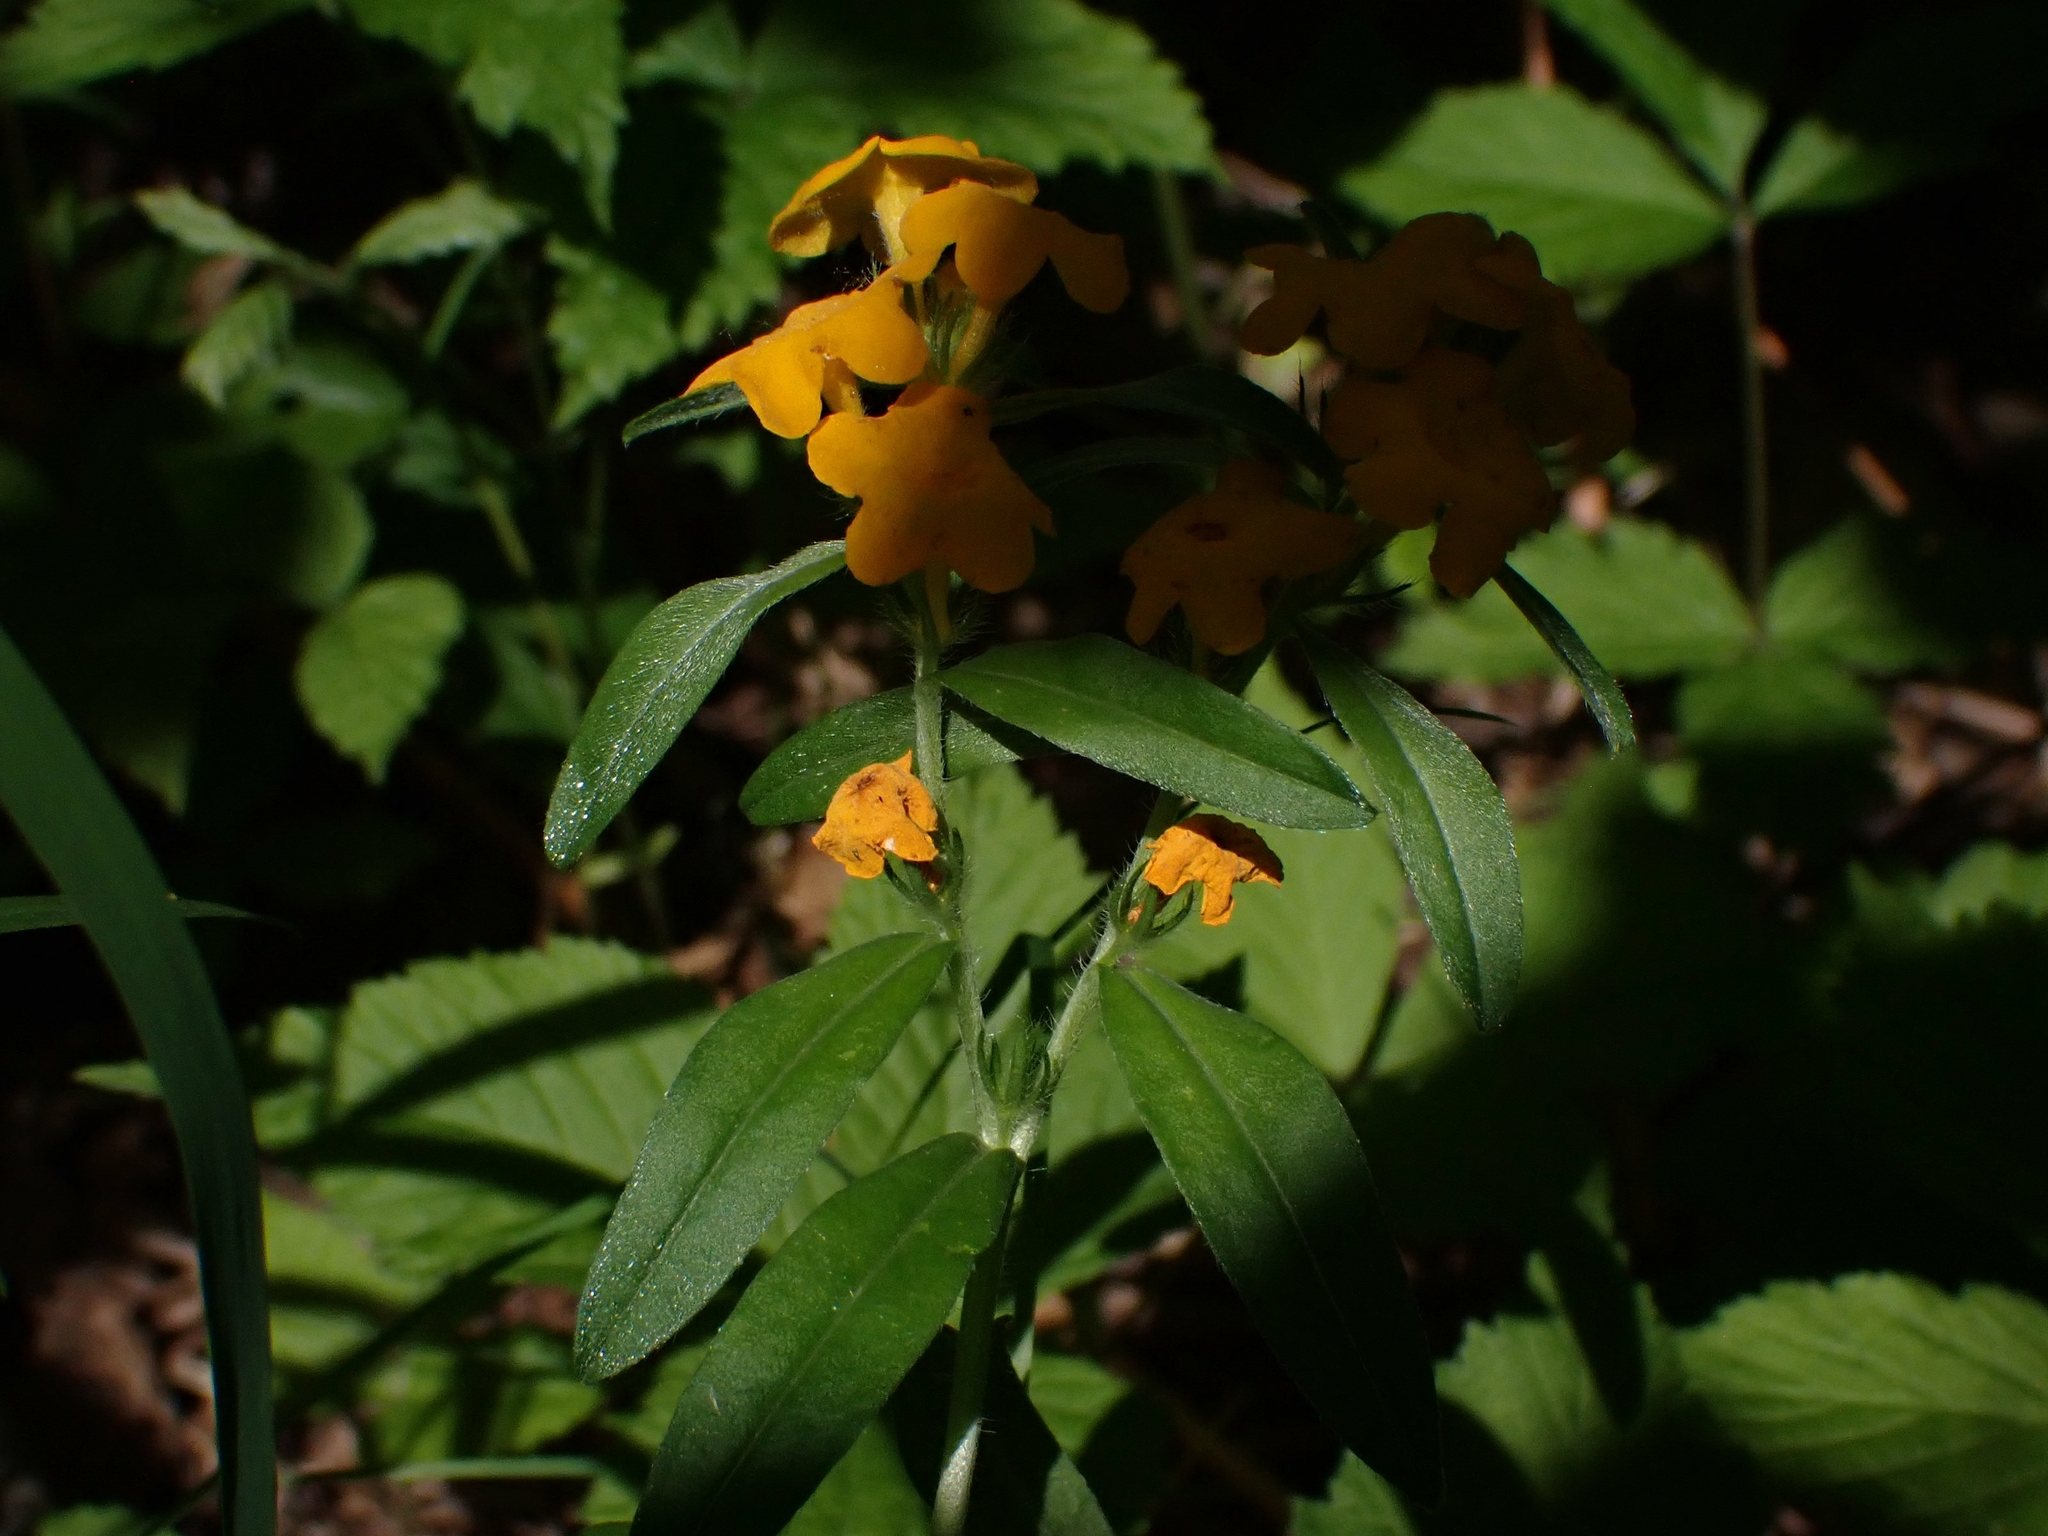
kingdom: Plantae
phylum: Tracheophyta
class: Magnoliopsida
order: Boraginales
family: Boraginaceae
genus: Lithospermum
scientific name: Lithospermum canescens
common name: Hoary puccoon
